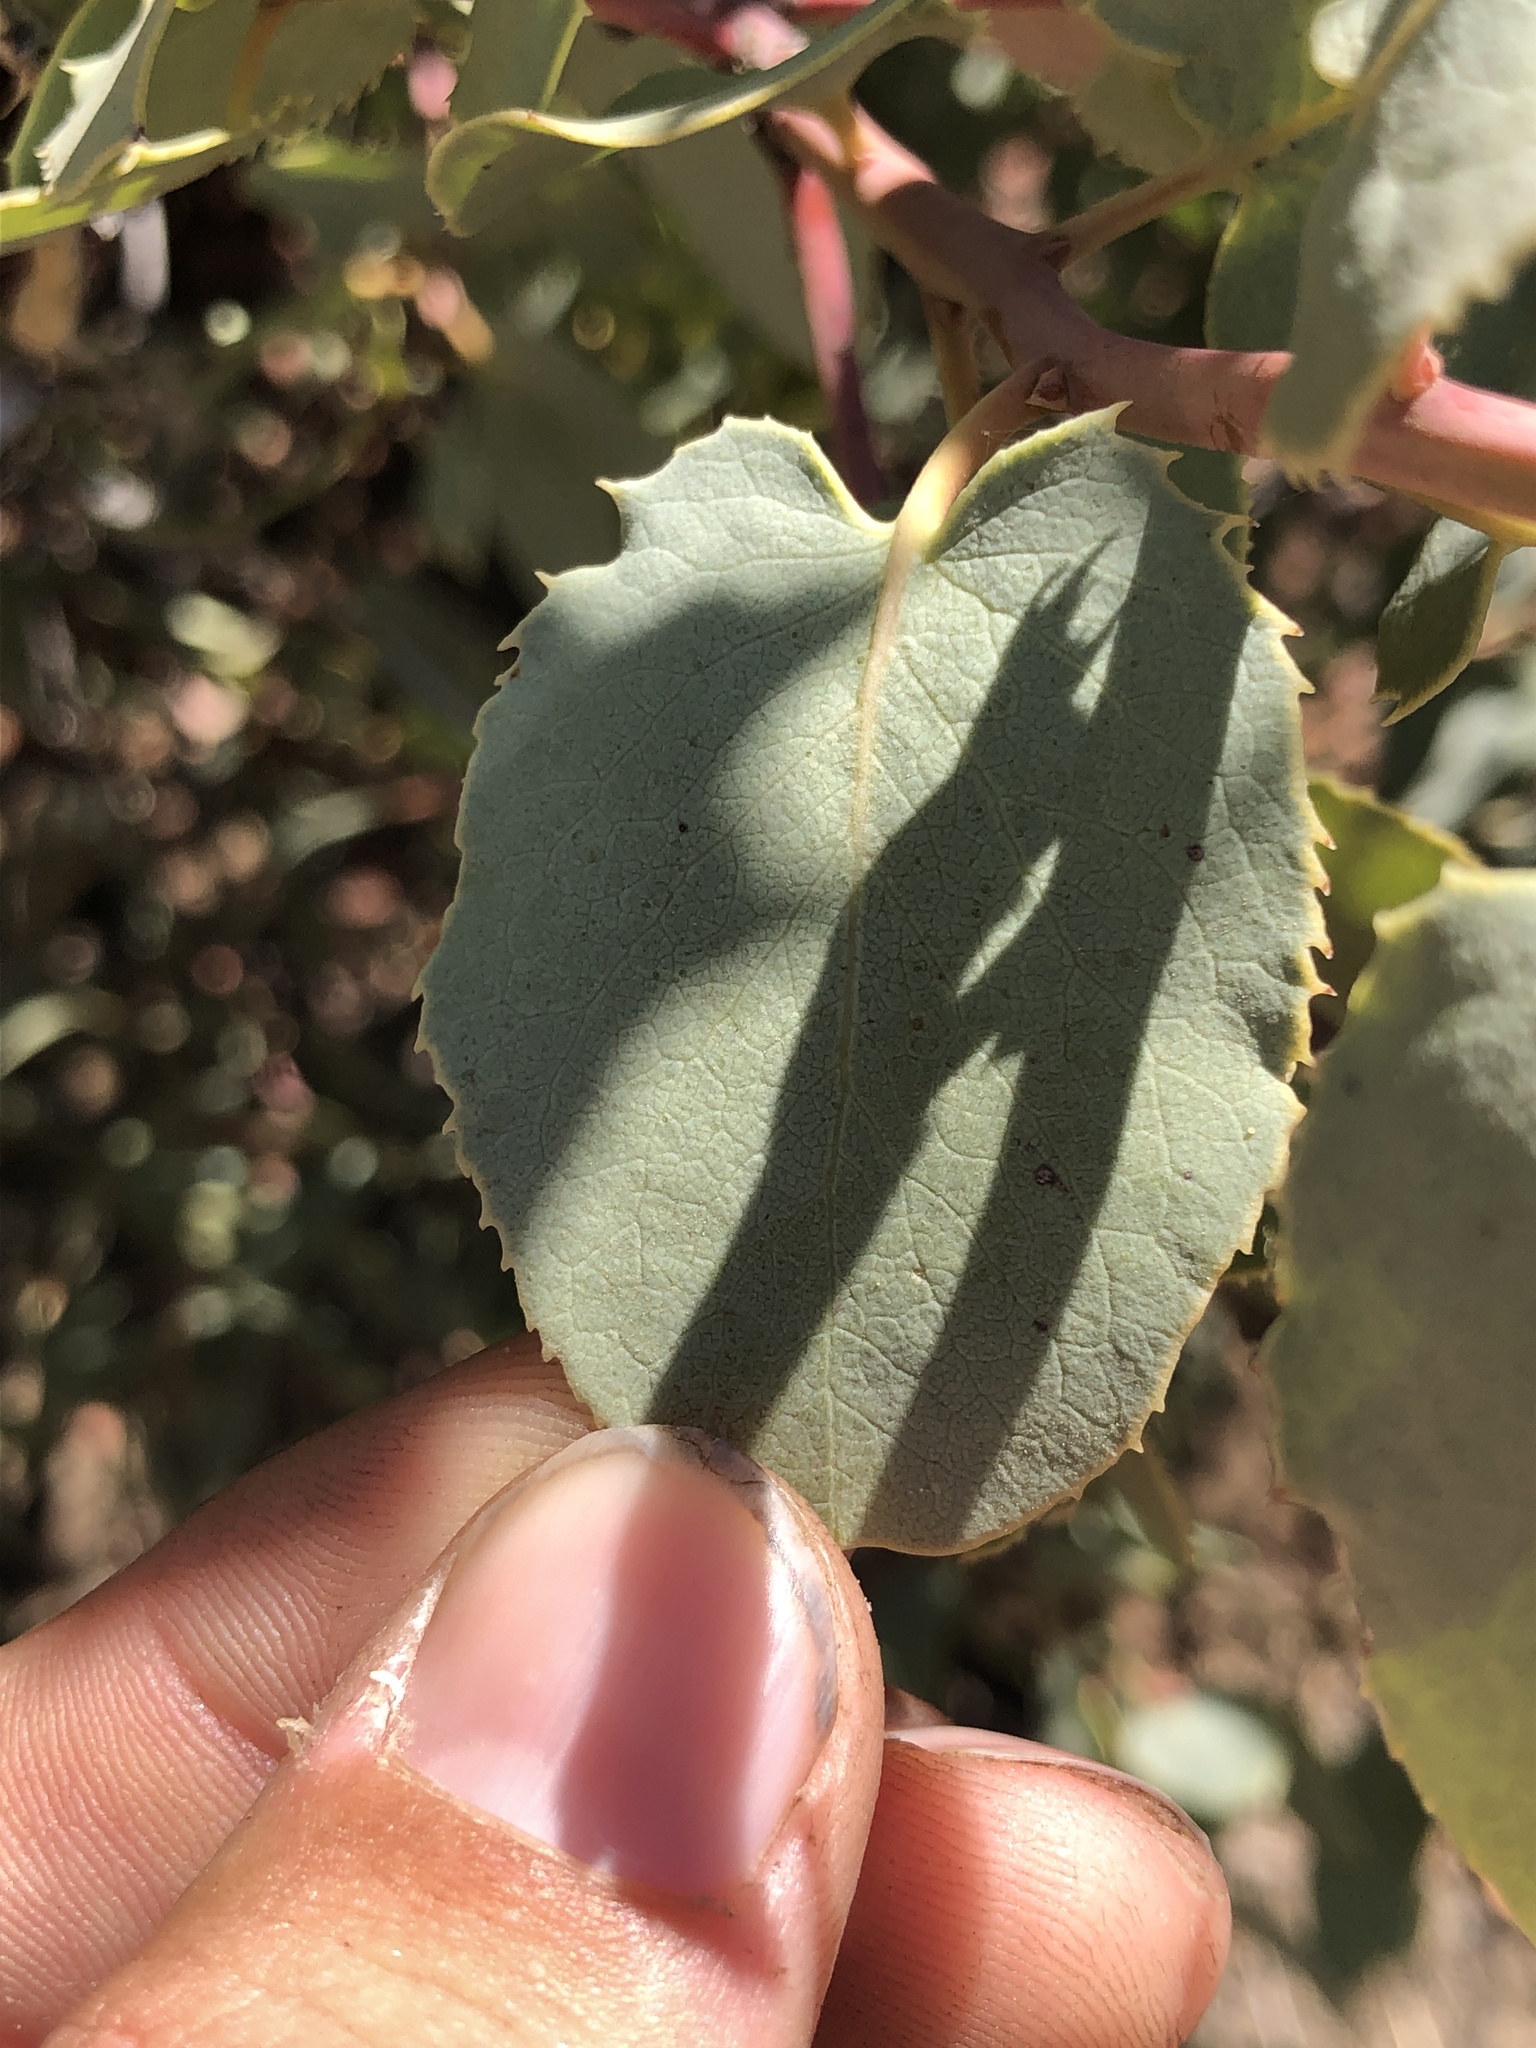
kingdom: Plantae
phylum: Tracheophyta
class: Magnoliopsida
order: Ericales
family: Ericaceae
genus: Arctostaphylos
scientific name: Arctostaphylos glauca
